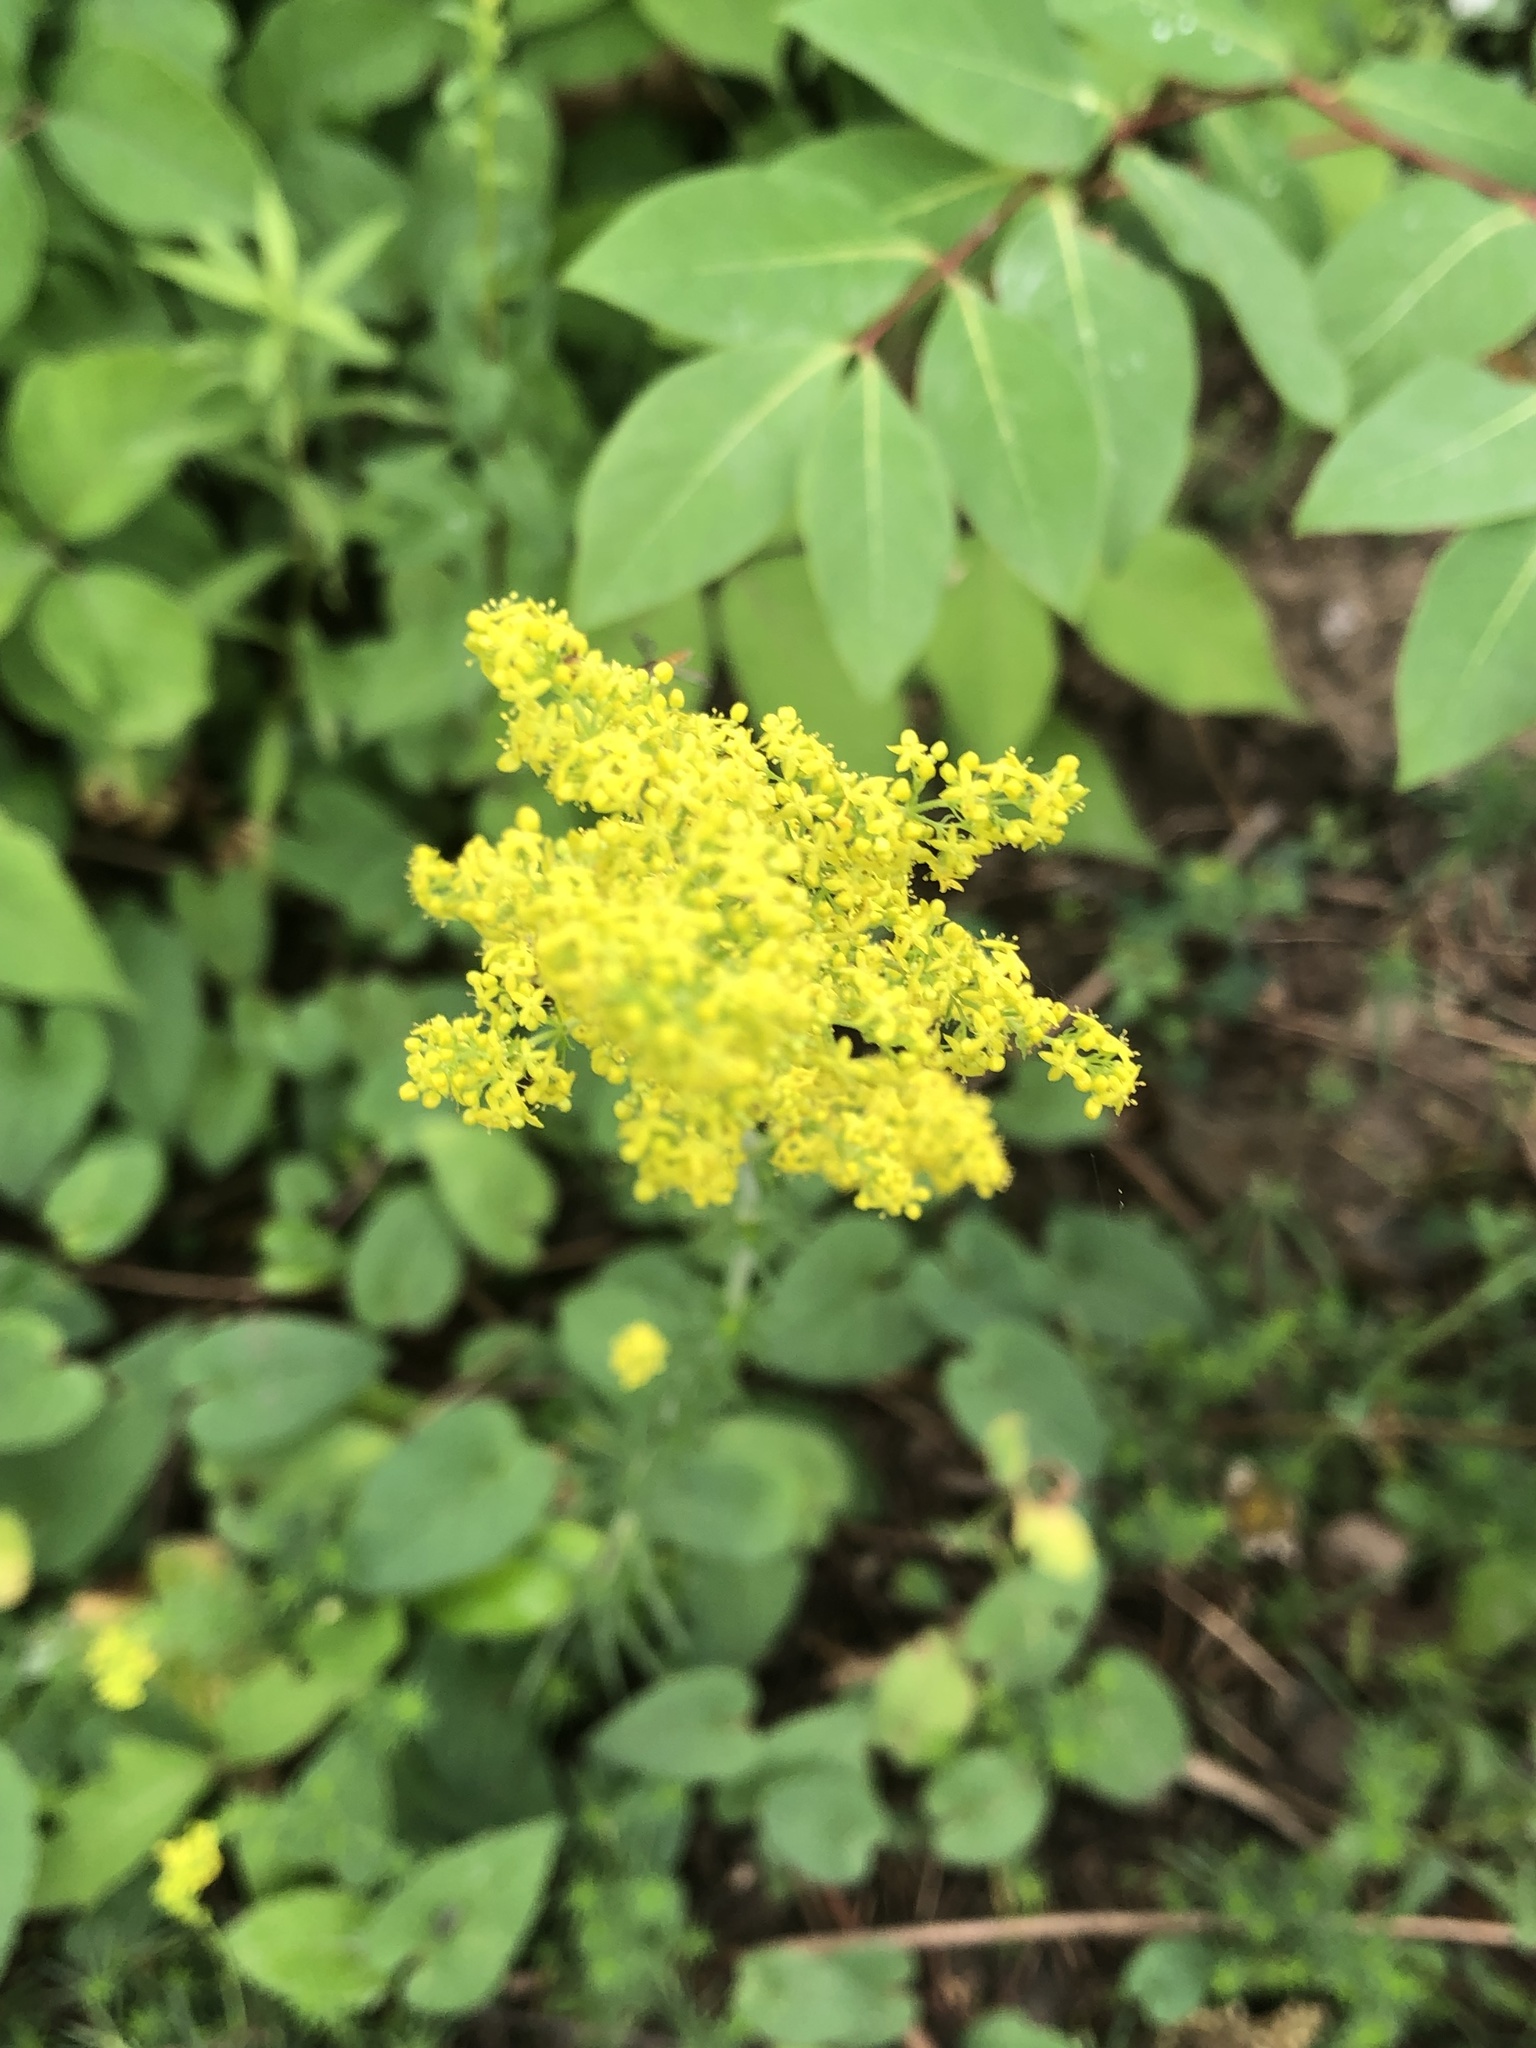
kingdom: Plantae
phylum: Tracheophyta
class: Magnoliopsida
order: Gentianales
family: Rubiaceae
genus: Galium
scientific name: Galium verum
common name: Lady's bedstraw
